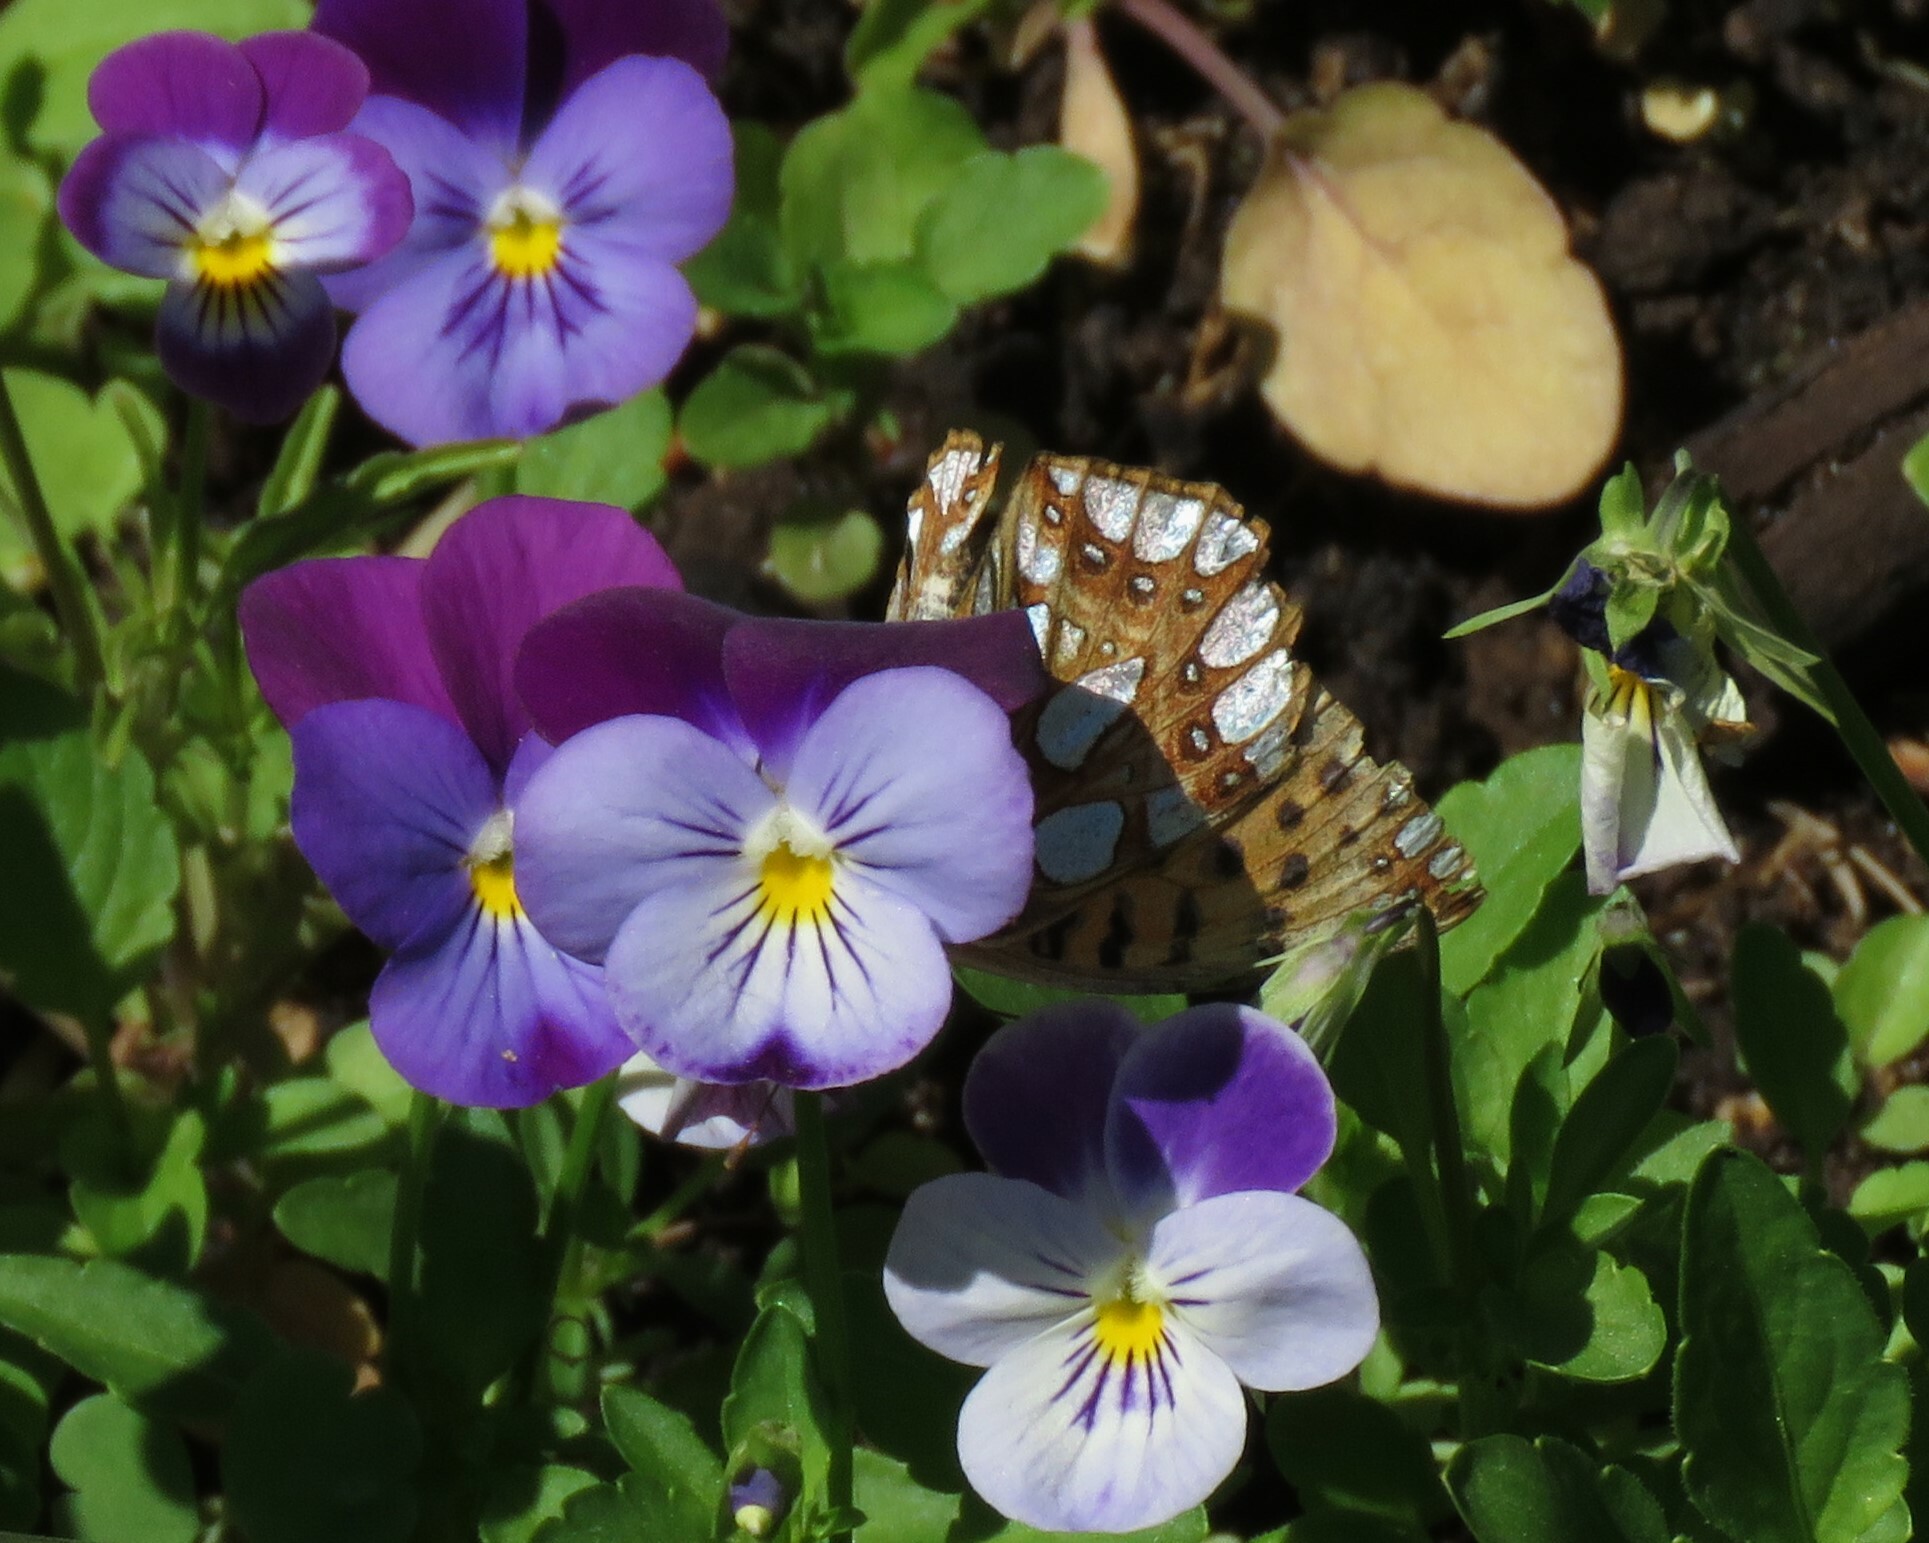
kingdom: Animalia
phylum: Arthropoda
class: Insecta
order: Lepidoptera
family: Nymphalidae
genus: Issoria
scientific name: Issoria lathonia
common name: Queen of spain fritillary
